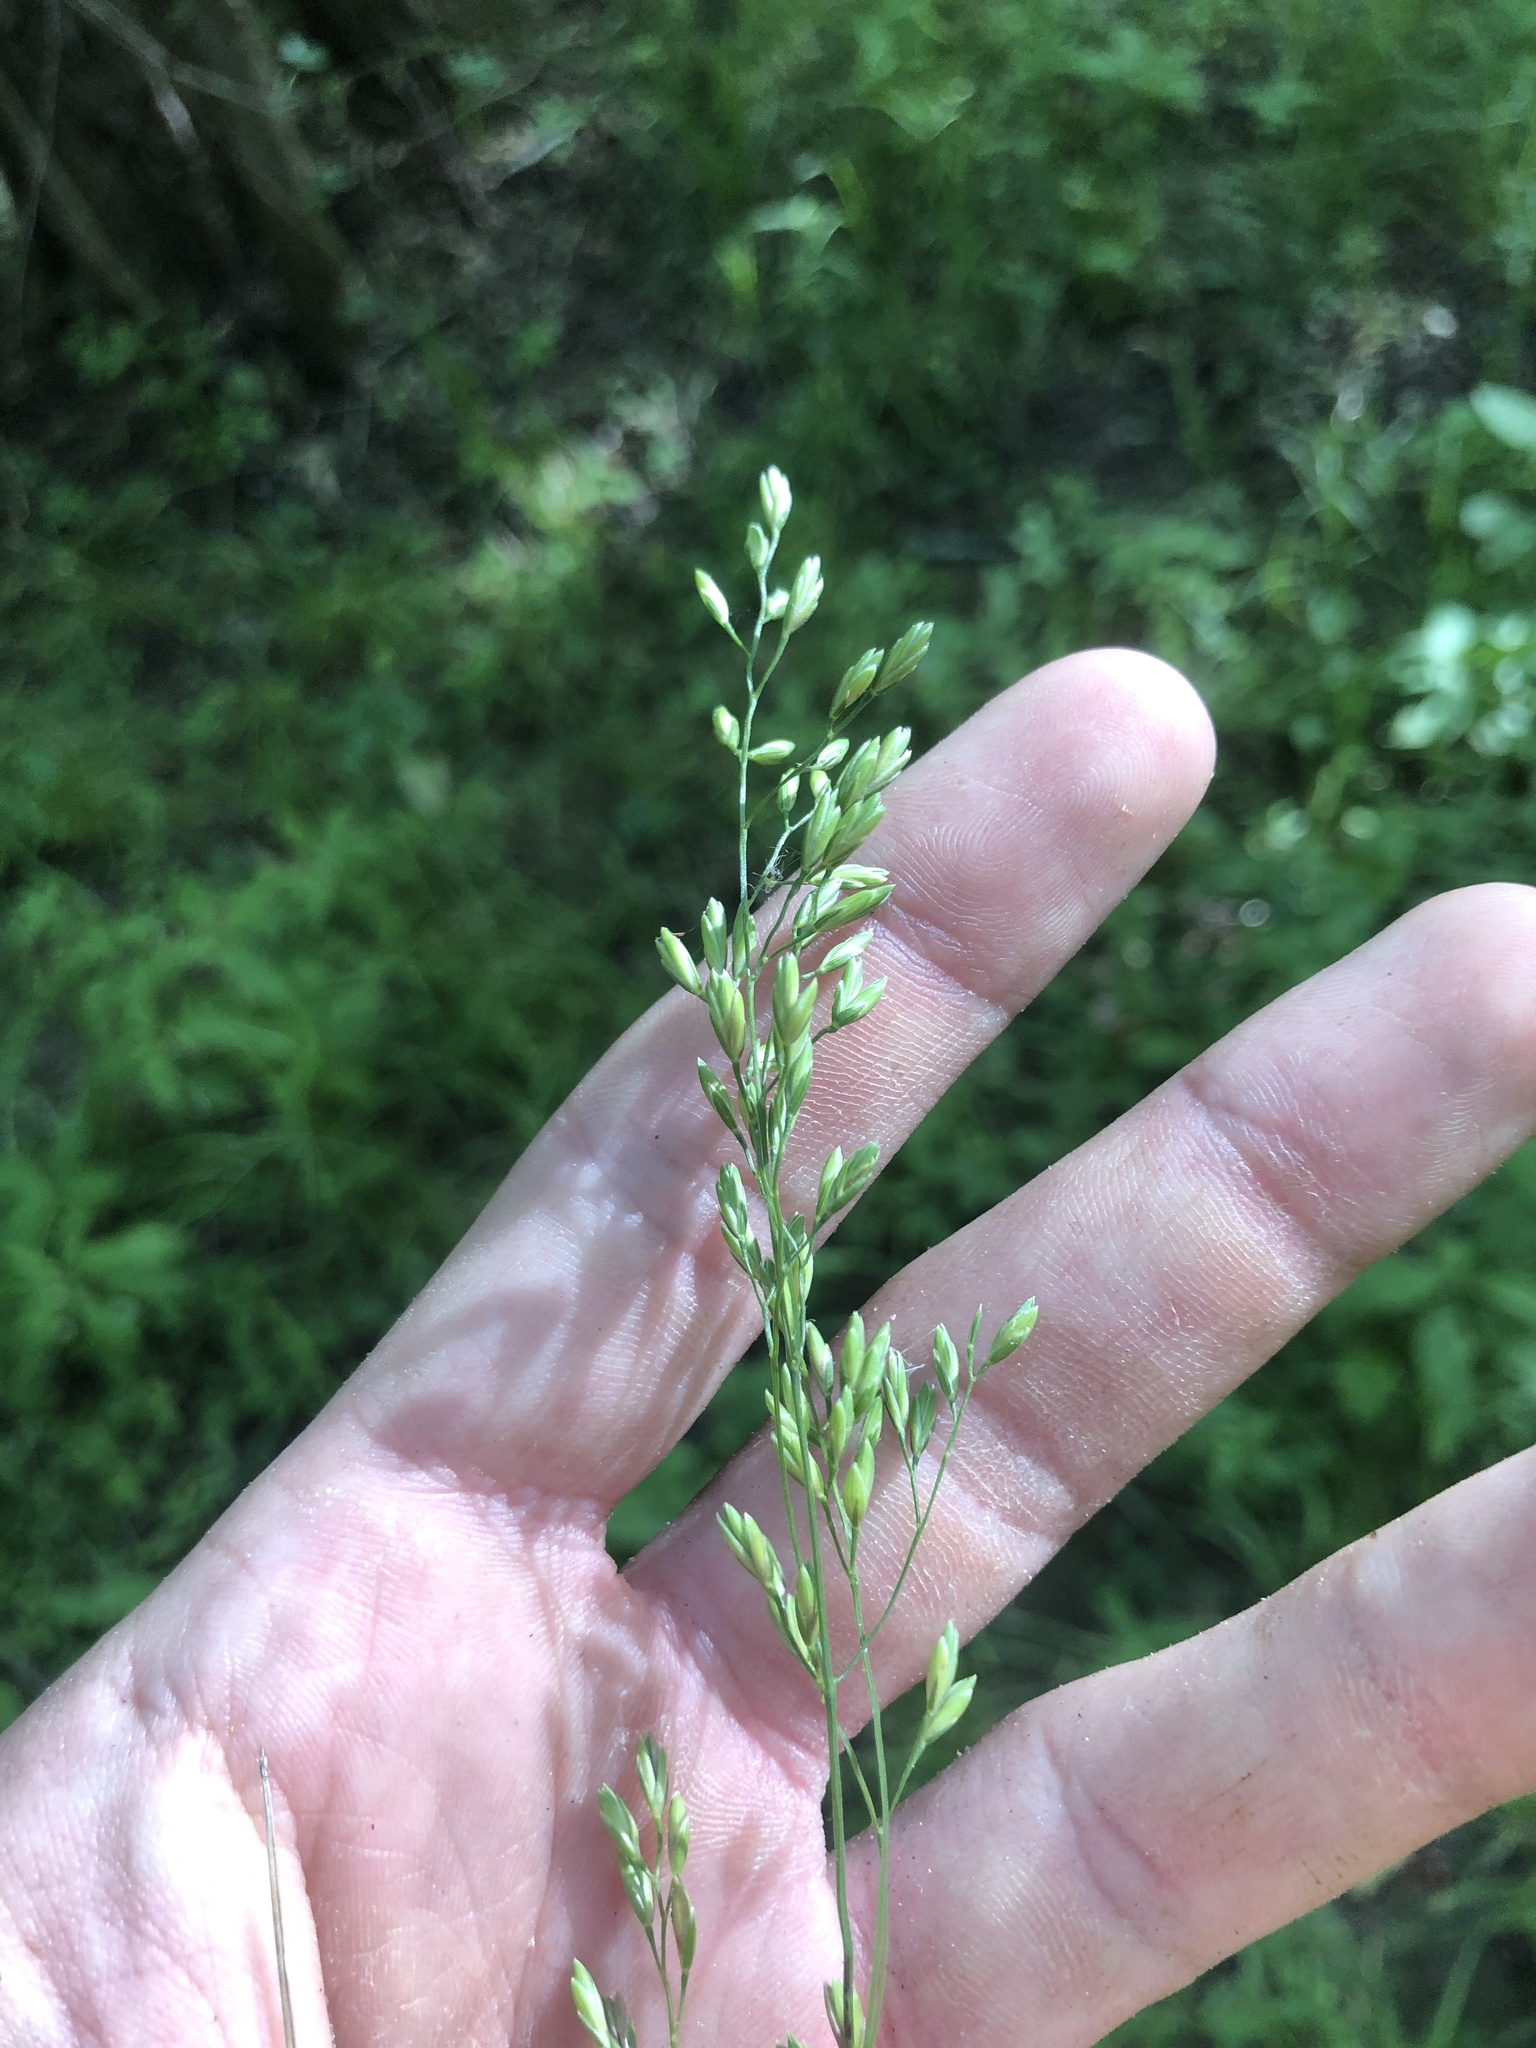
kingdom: Plantae
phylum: Tracheophyta
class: Liliopsida
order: Poales
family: Poaceae
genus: Festuca
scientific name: Festuca paradoxa
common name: Cluster fescue
